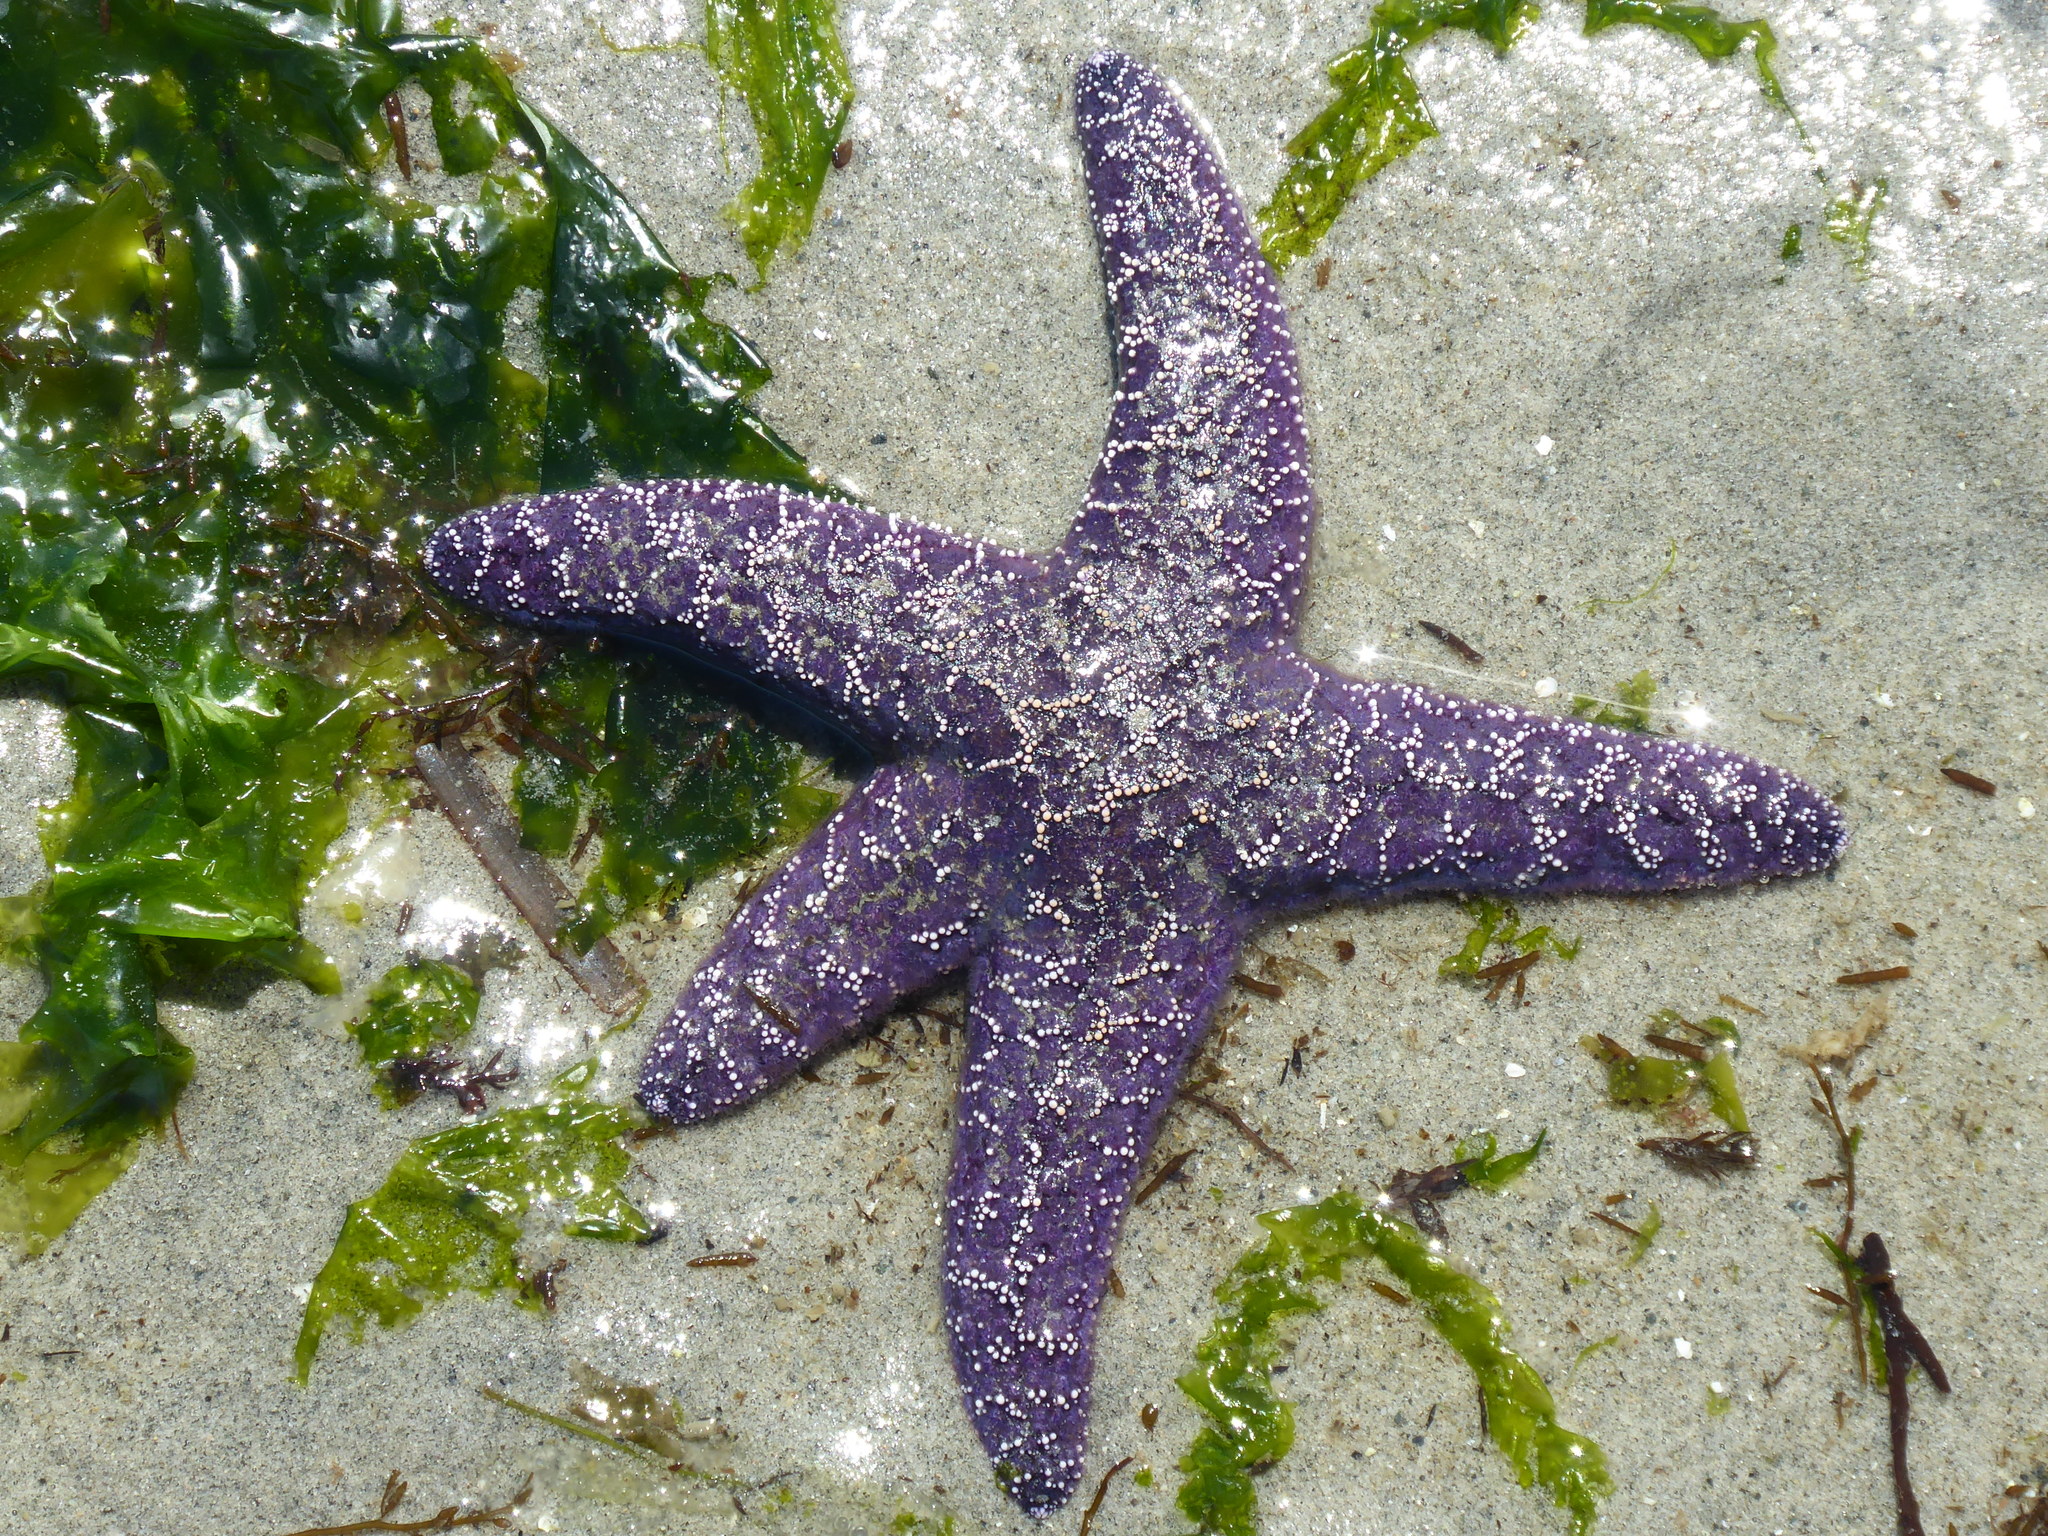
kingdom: Animalia
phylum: Echinodermata
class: Asteroidea
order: Forcipulatida
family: Asteriidae
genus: Pisaster
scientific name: Pisaster ochraceus
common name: Ochre stars
